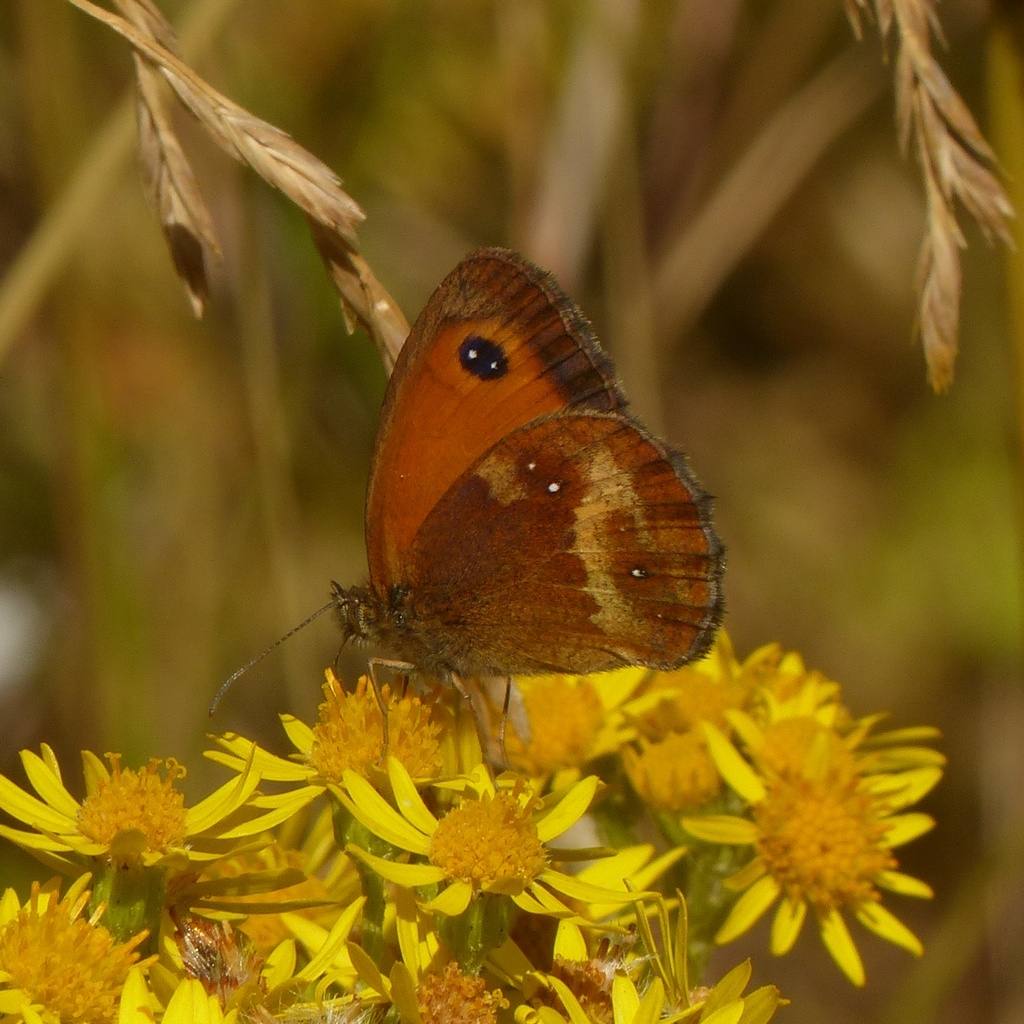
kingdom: Animalia
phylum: Arthropoda
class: Insecta
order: Lepidoptera
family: Nymphalidae
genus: Pyronia
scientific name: Pyronia tithonus
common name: Gatekeeper
